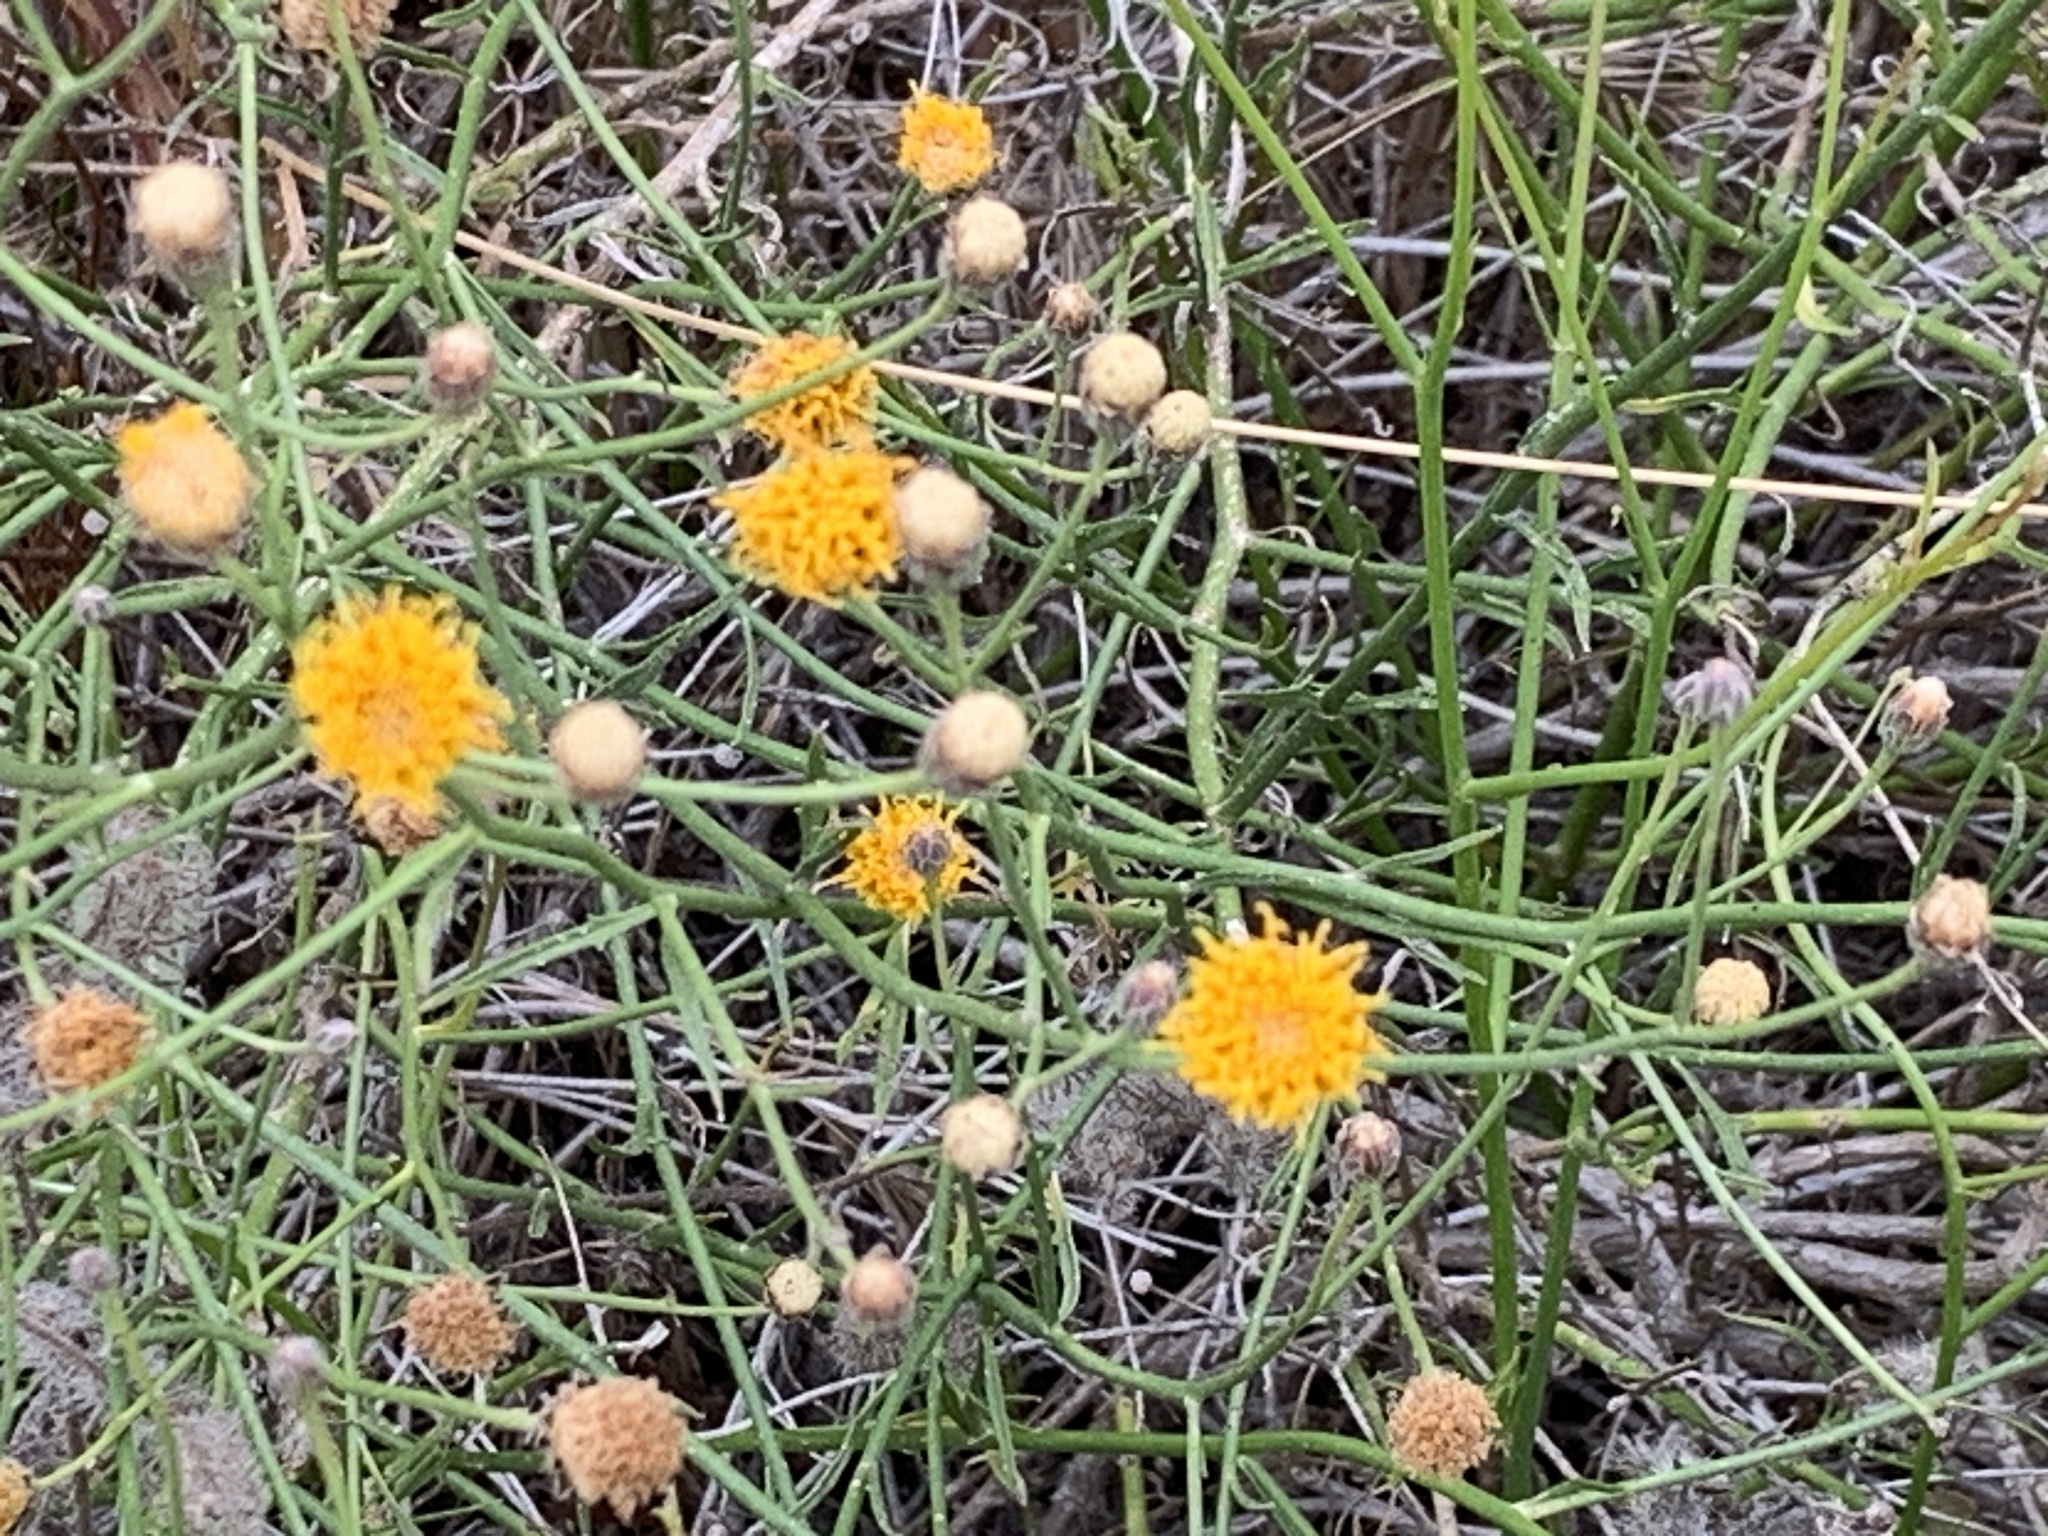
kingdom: Plantae
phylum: Tracheophyta
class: Magnoliopsida
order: Asterales
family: Asteraceae
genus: Bebbia
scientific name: Bebbia juncea
